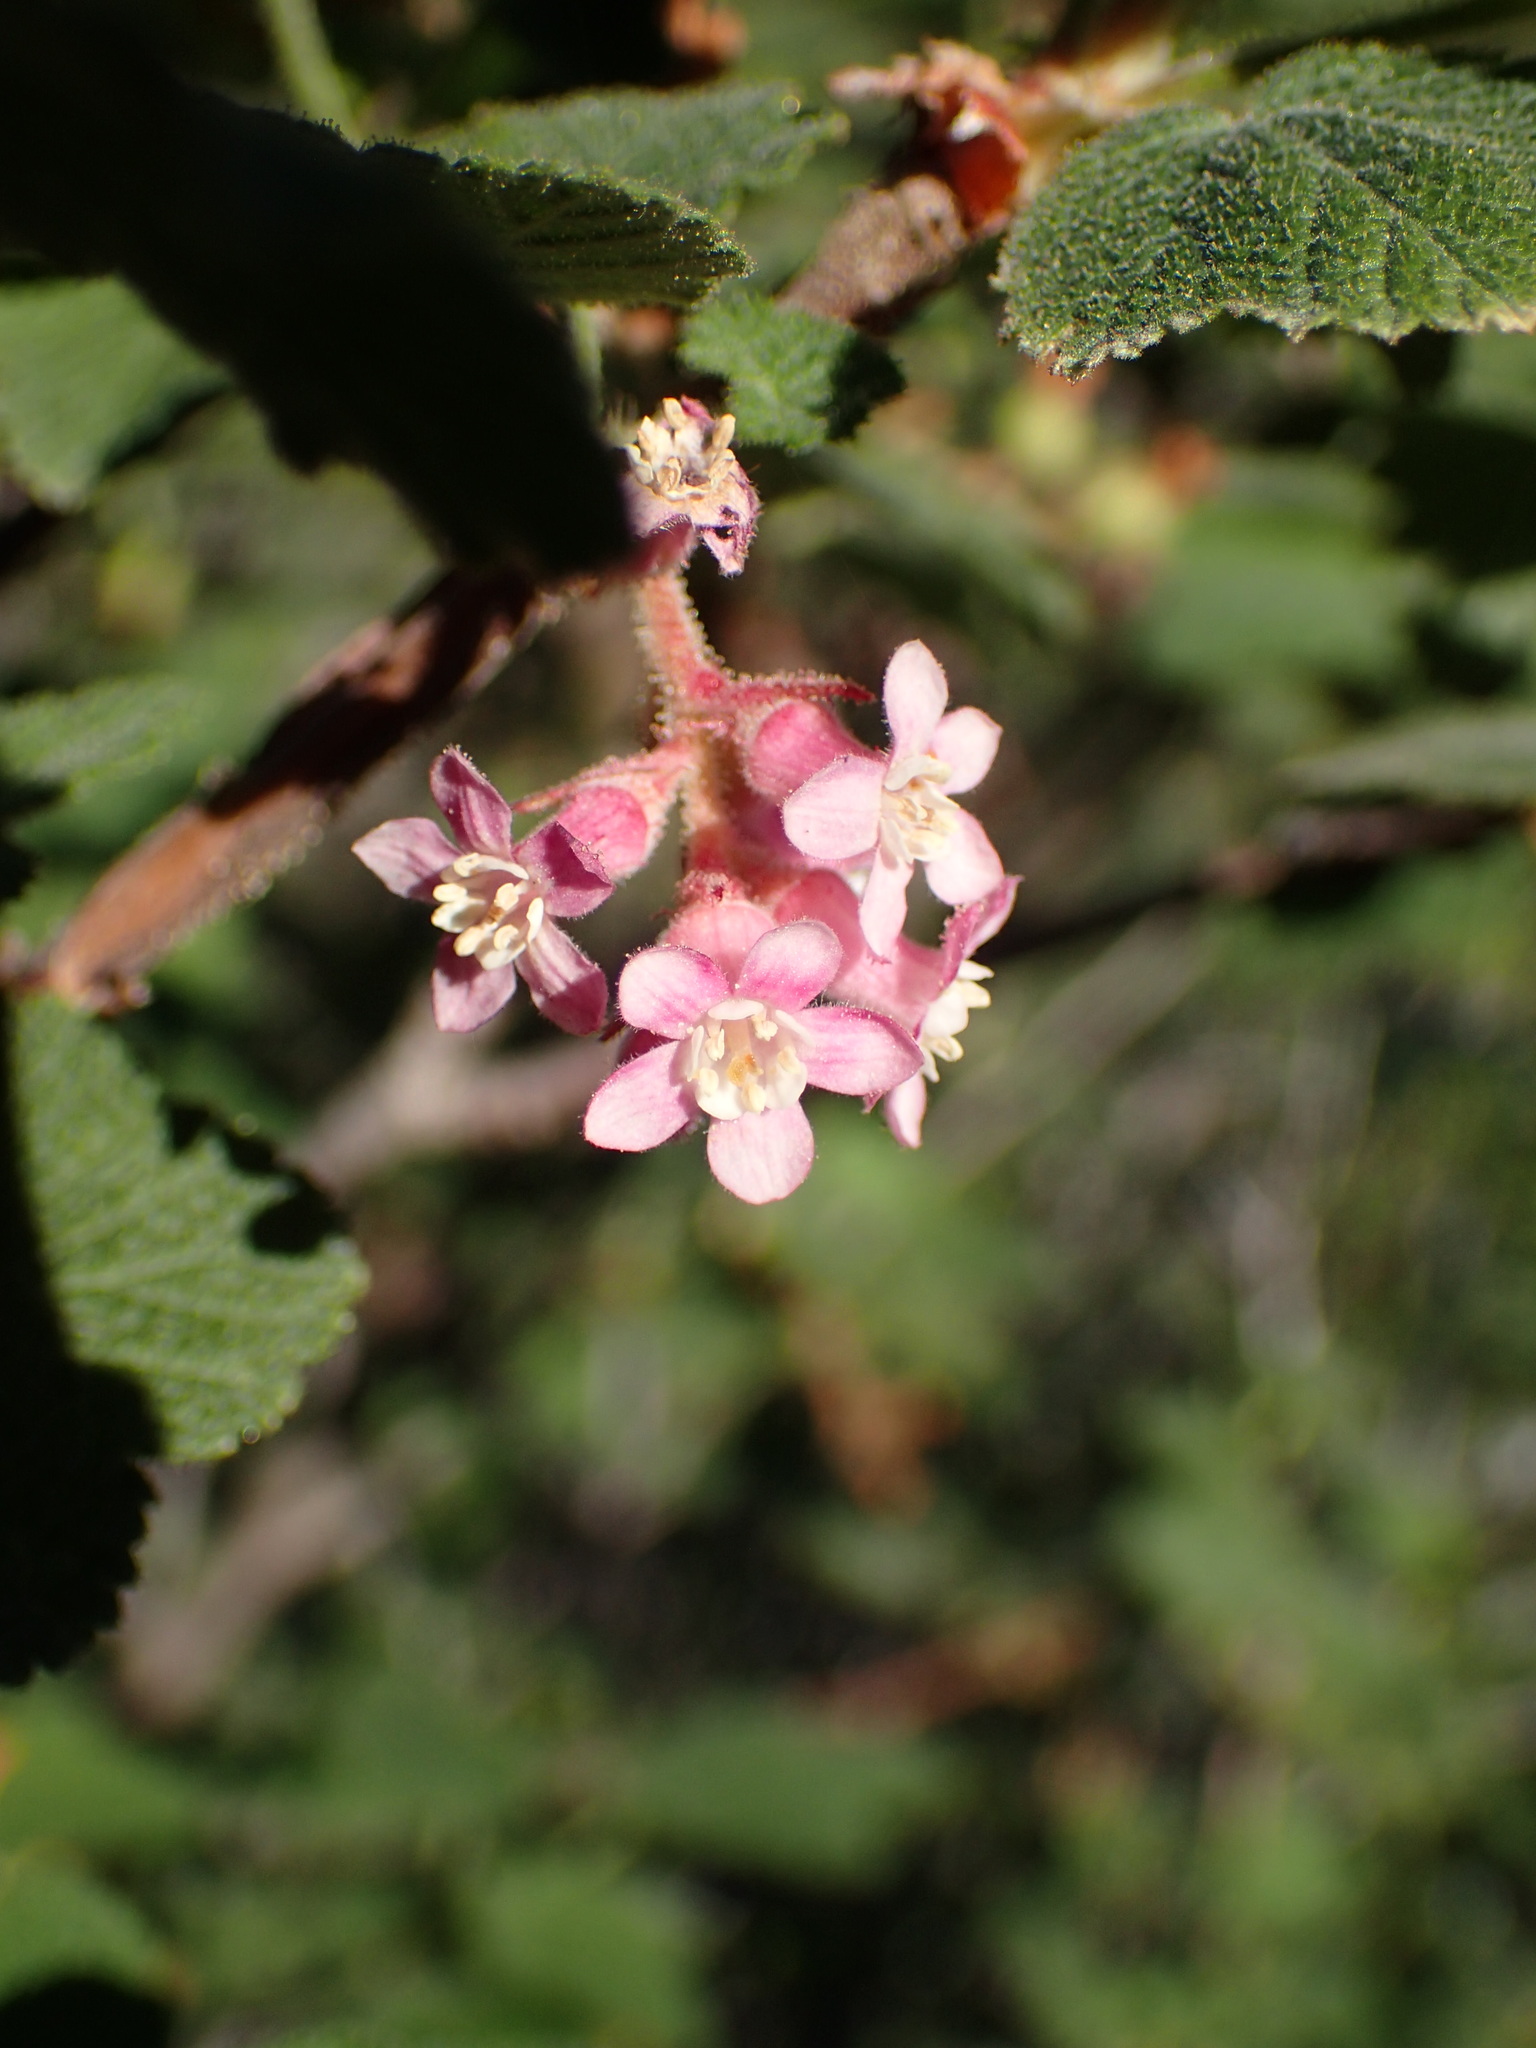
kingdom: Plantae
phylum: Tracheophyta
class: Magnoliopsida
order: Saxifragales
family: Grossulariaceae
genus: Ribes
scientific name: Ribes malvaceum
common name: Chaparral currant
